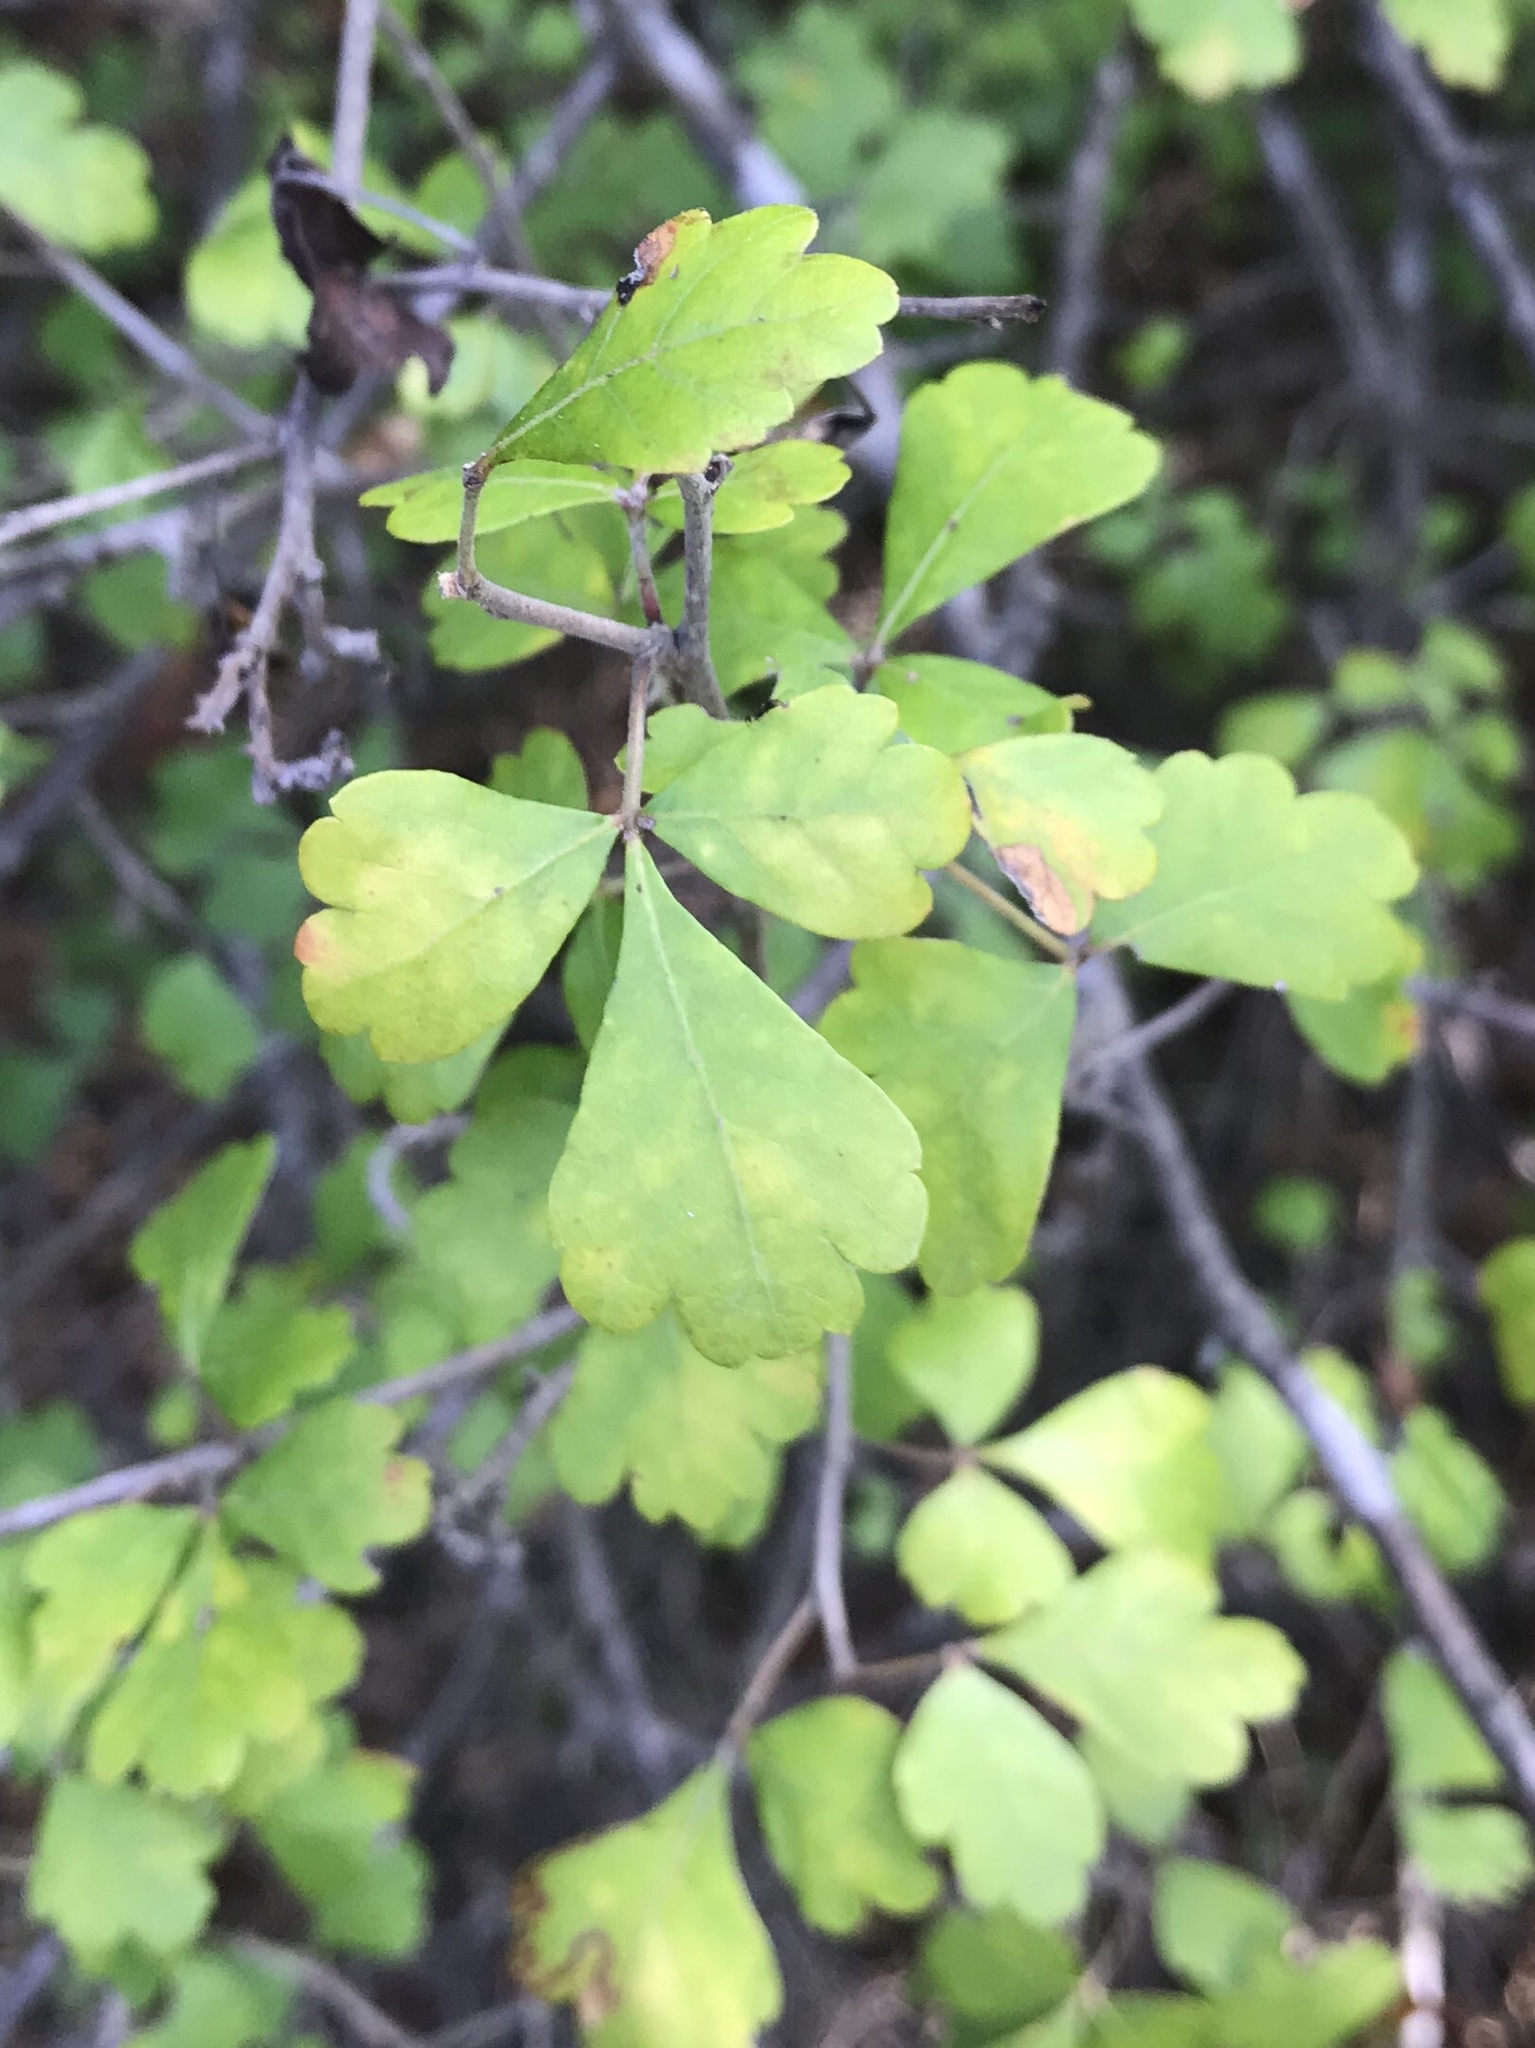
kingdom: Plantae
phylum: Tracheophyta
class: Magnoliopsida
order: Sapindales
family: Anacardiaceae
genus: Rhus
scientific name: Rhus aromatica
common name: Aromatic sumac
